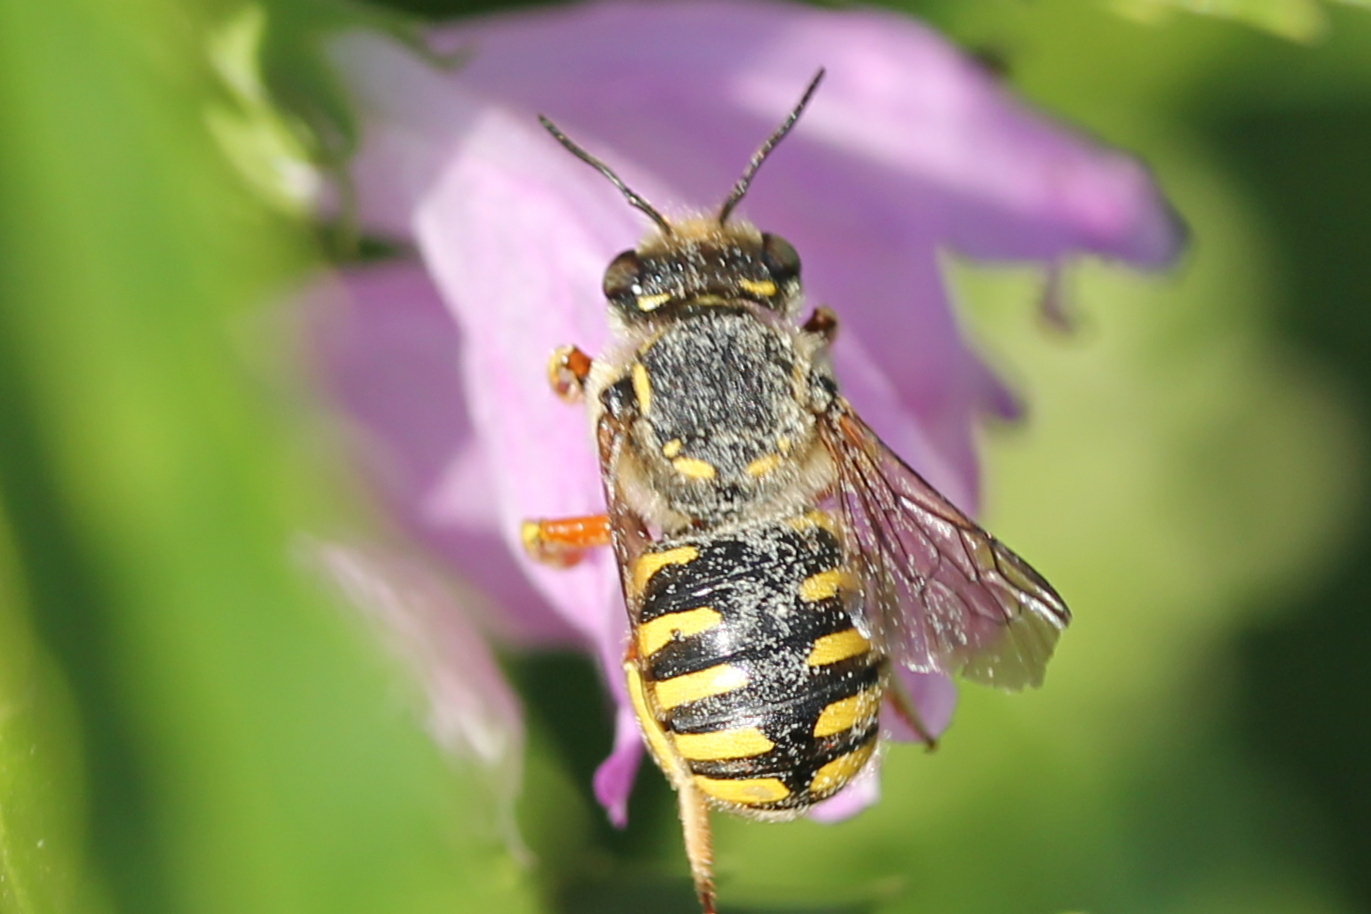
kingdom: Animalia
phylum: Arthropoda
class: Insecta
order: Hymenoptera
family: Megachilidae
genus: Anthidium
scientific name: Anthidium manicatum
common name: Wool carder bee
